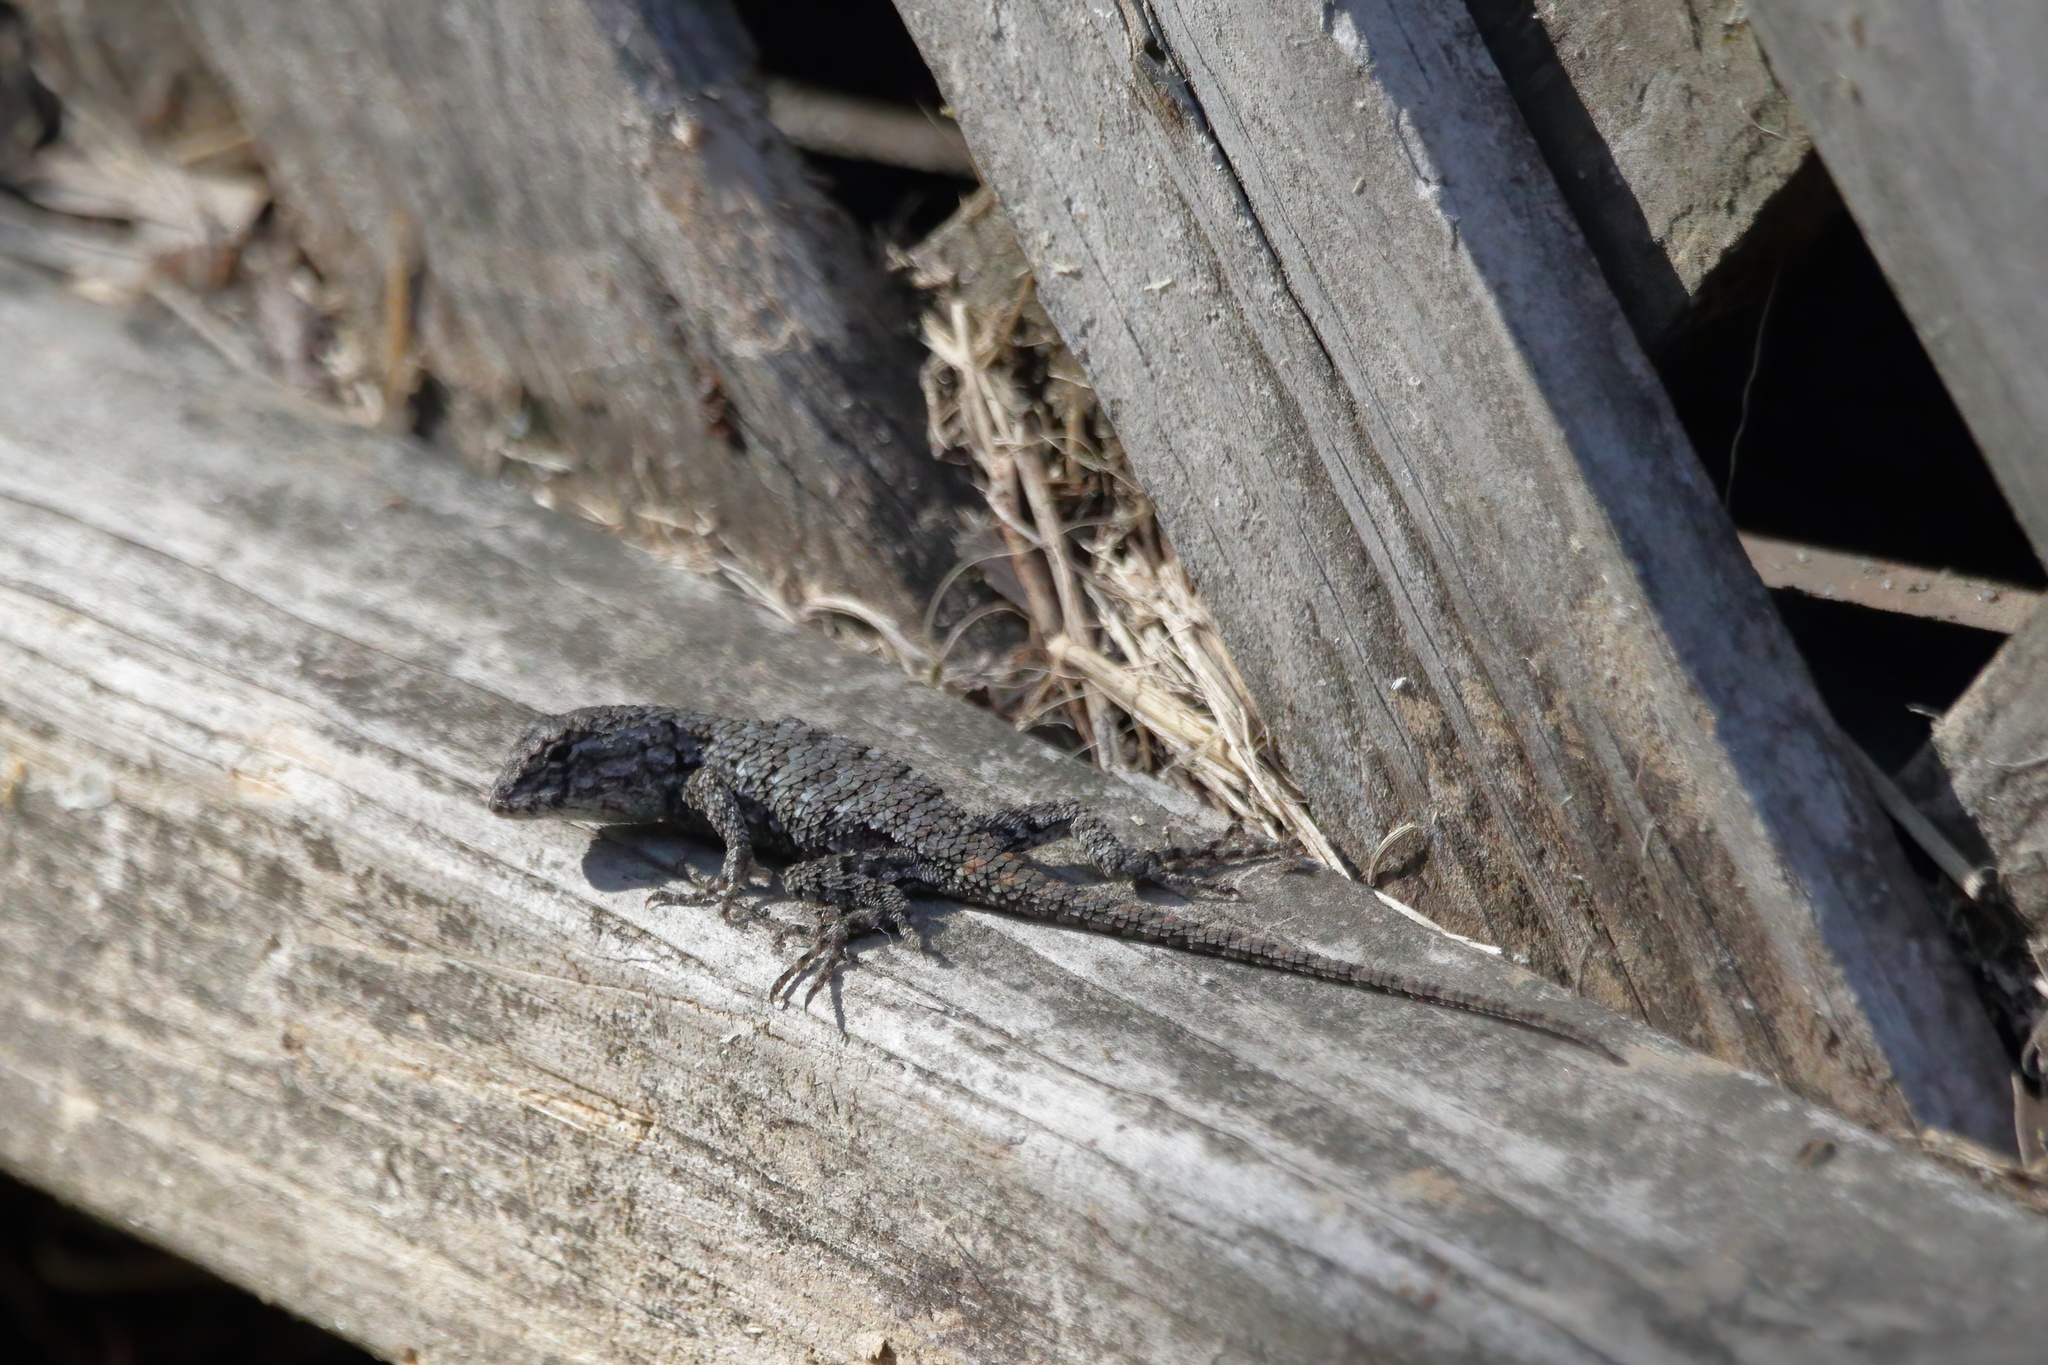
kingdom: Animalia
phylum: Chordata
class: Squamata
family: Phrynosomatidae
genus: Sceloporus
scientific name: Sceloporus undulatus
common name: Eastern fence lizard
